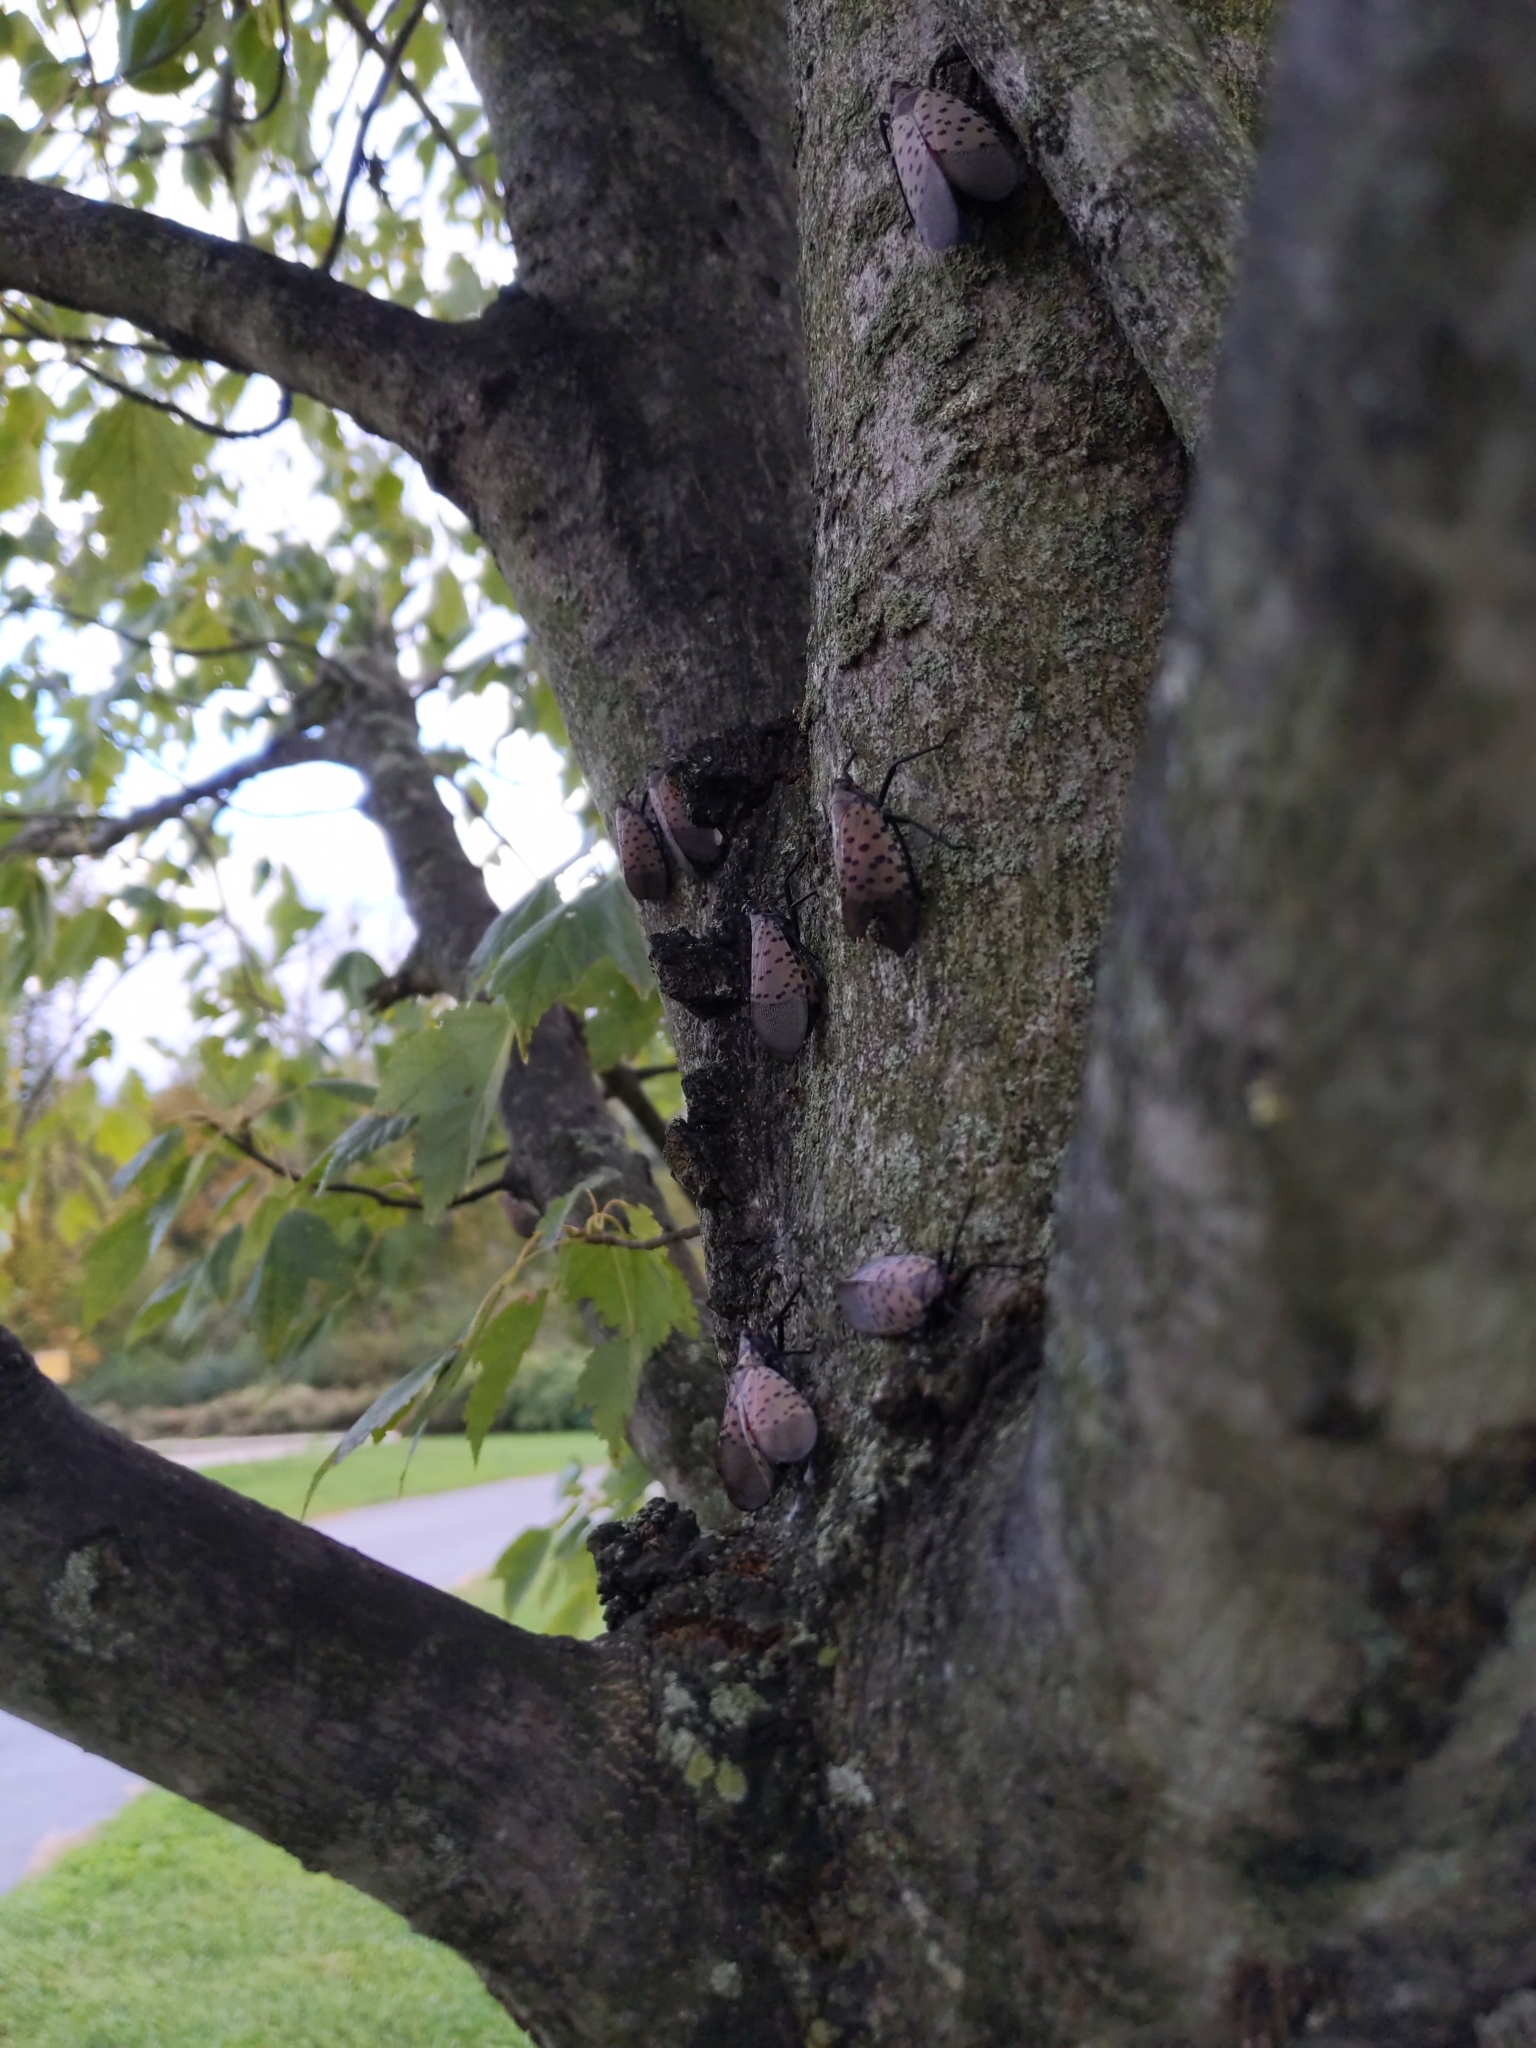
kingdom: Animalia
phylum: Arthropoda
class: Insecta
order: Hemiptera
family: Fulgoridae
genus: Lycorma
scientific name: Lycorma delicatula
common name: Spotted lanternfly
